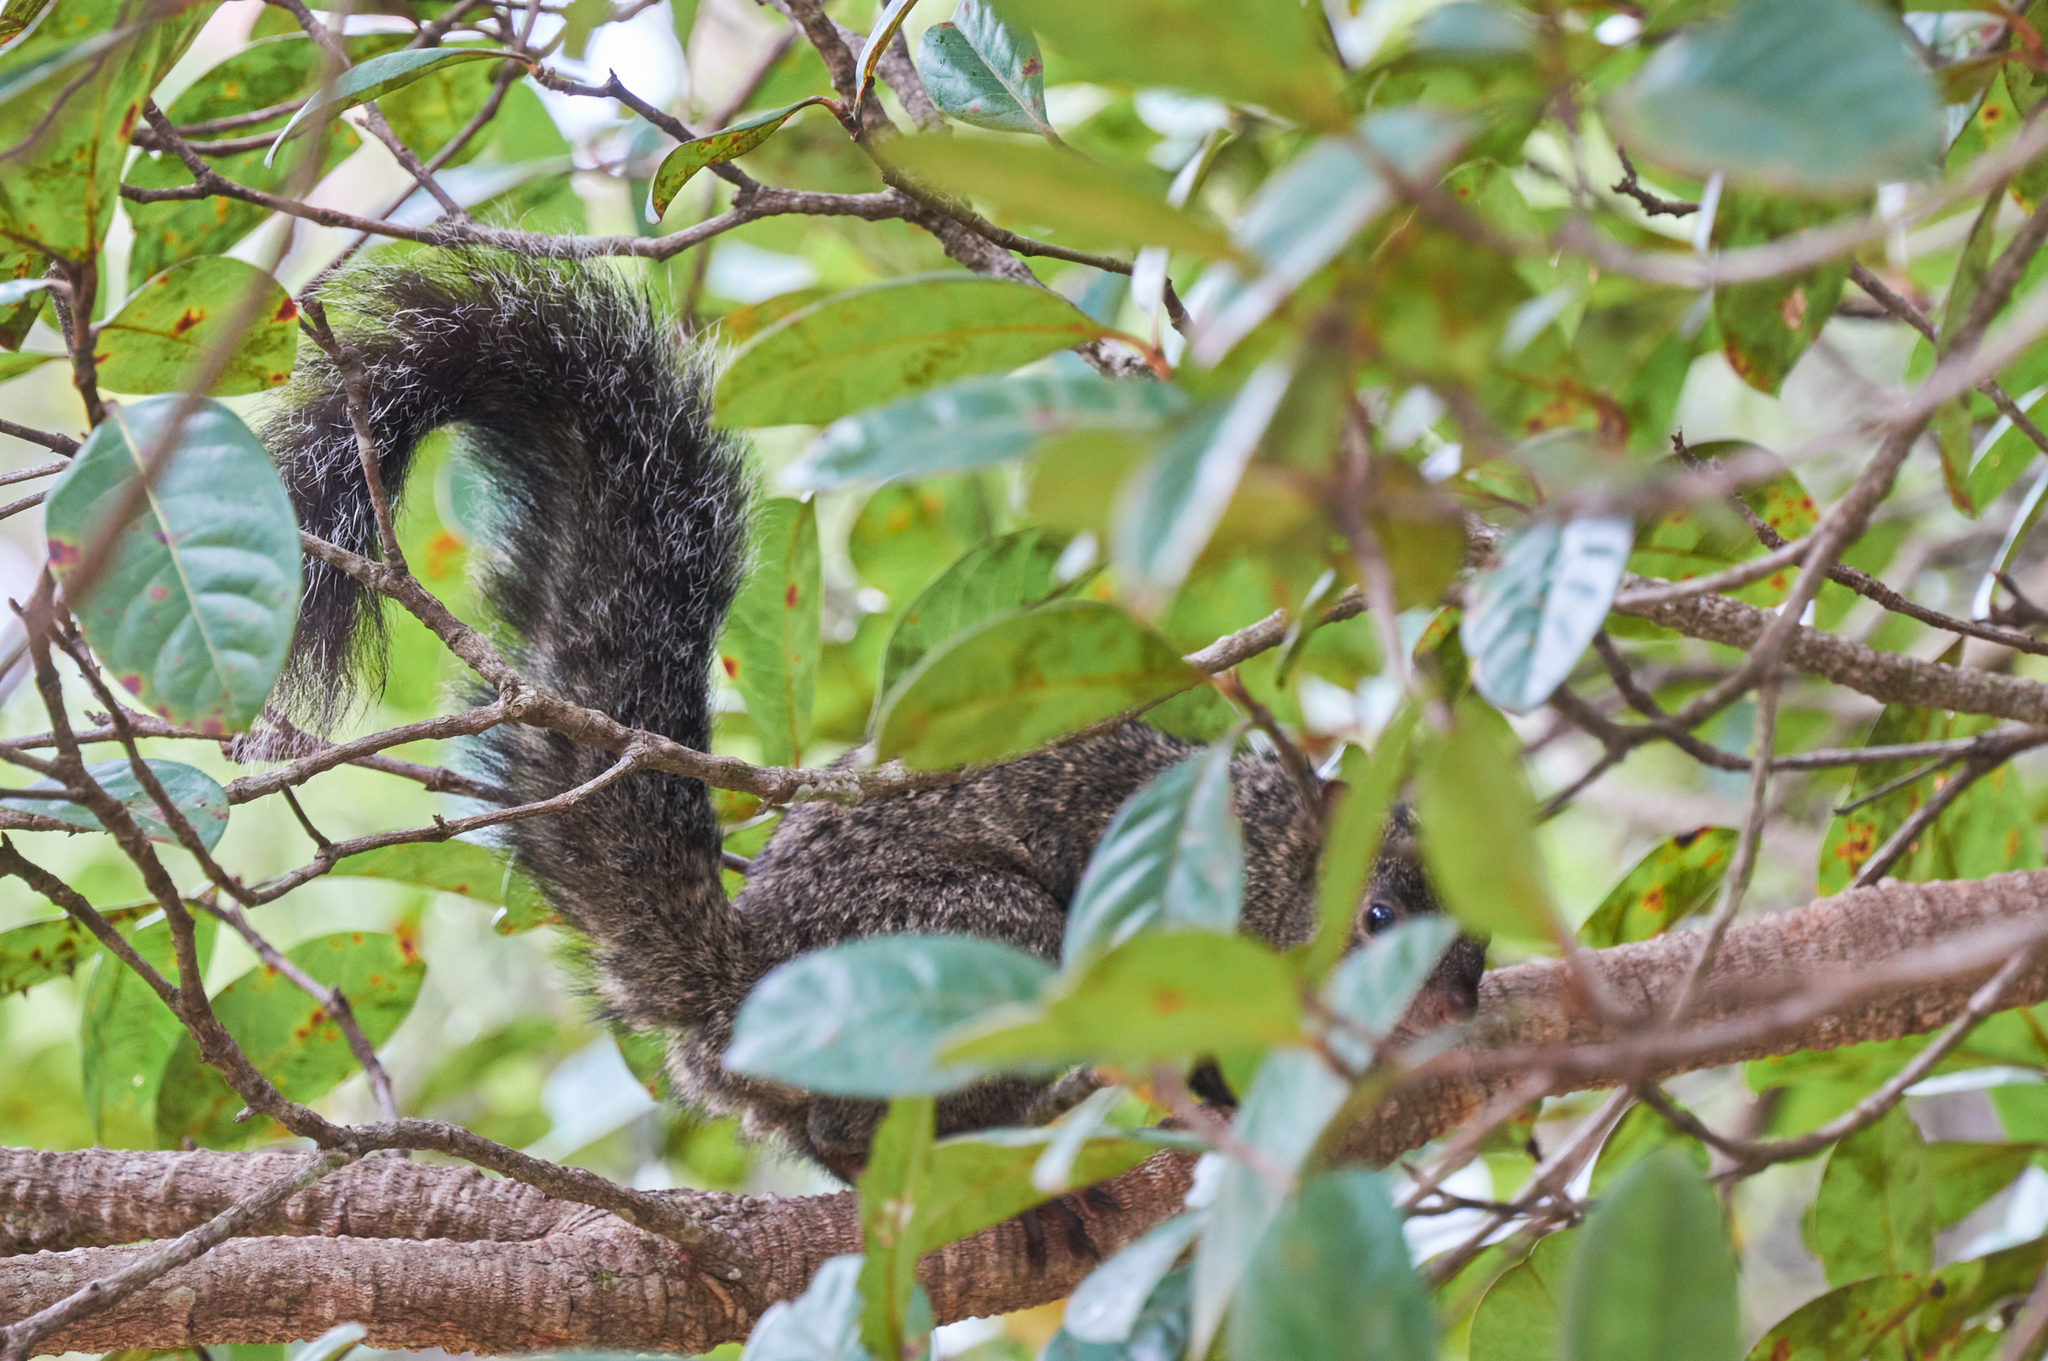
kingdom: Animalia
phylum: Chordata
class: Mammalia
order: Rodentia
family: Sciuridae
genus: Sciurus
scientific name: Sciurus yucatanensis
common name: Yucatan squirrel
